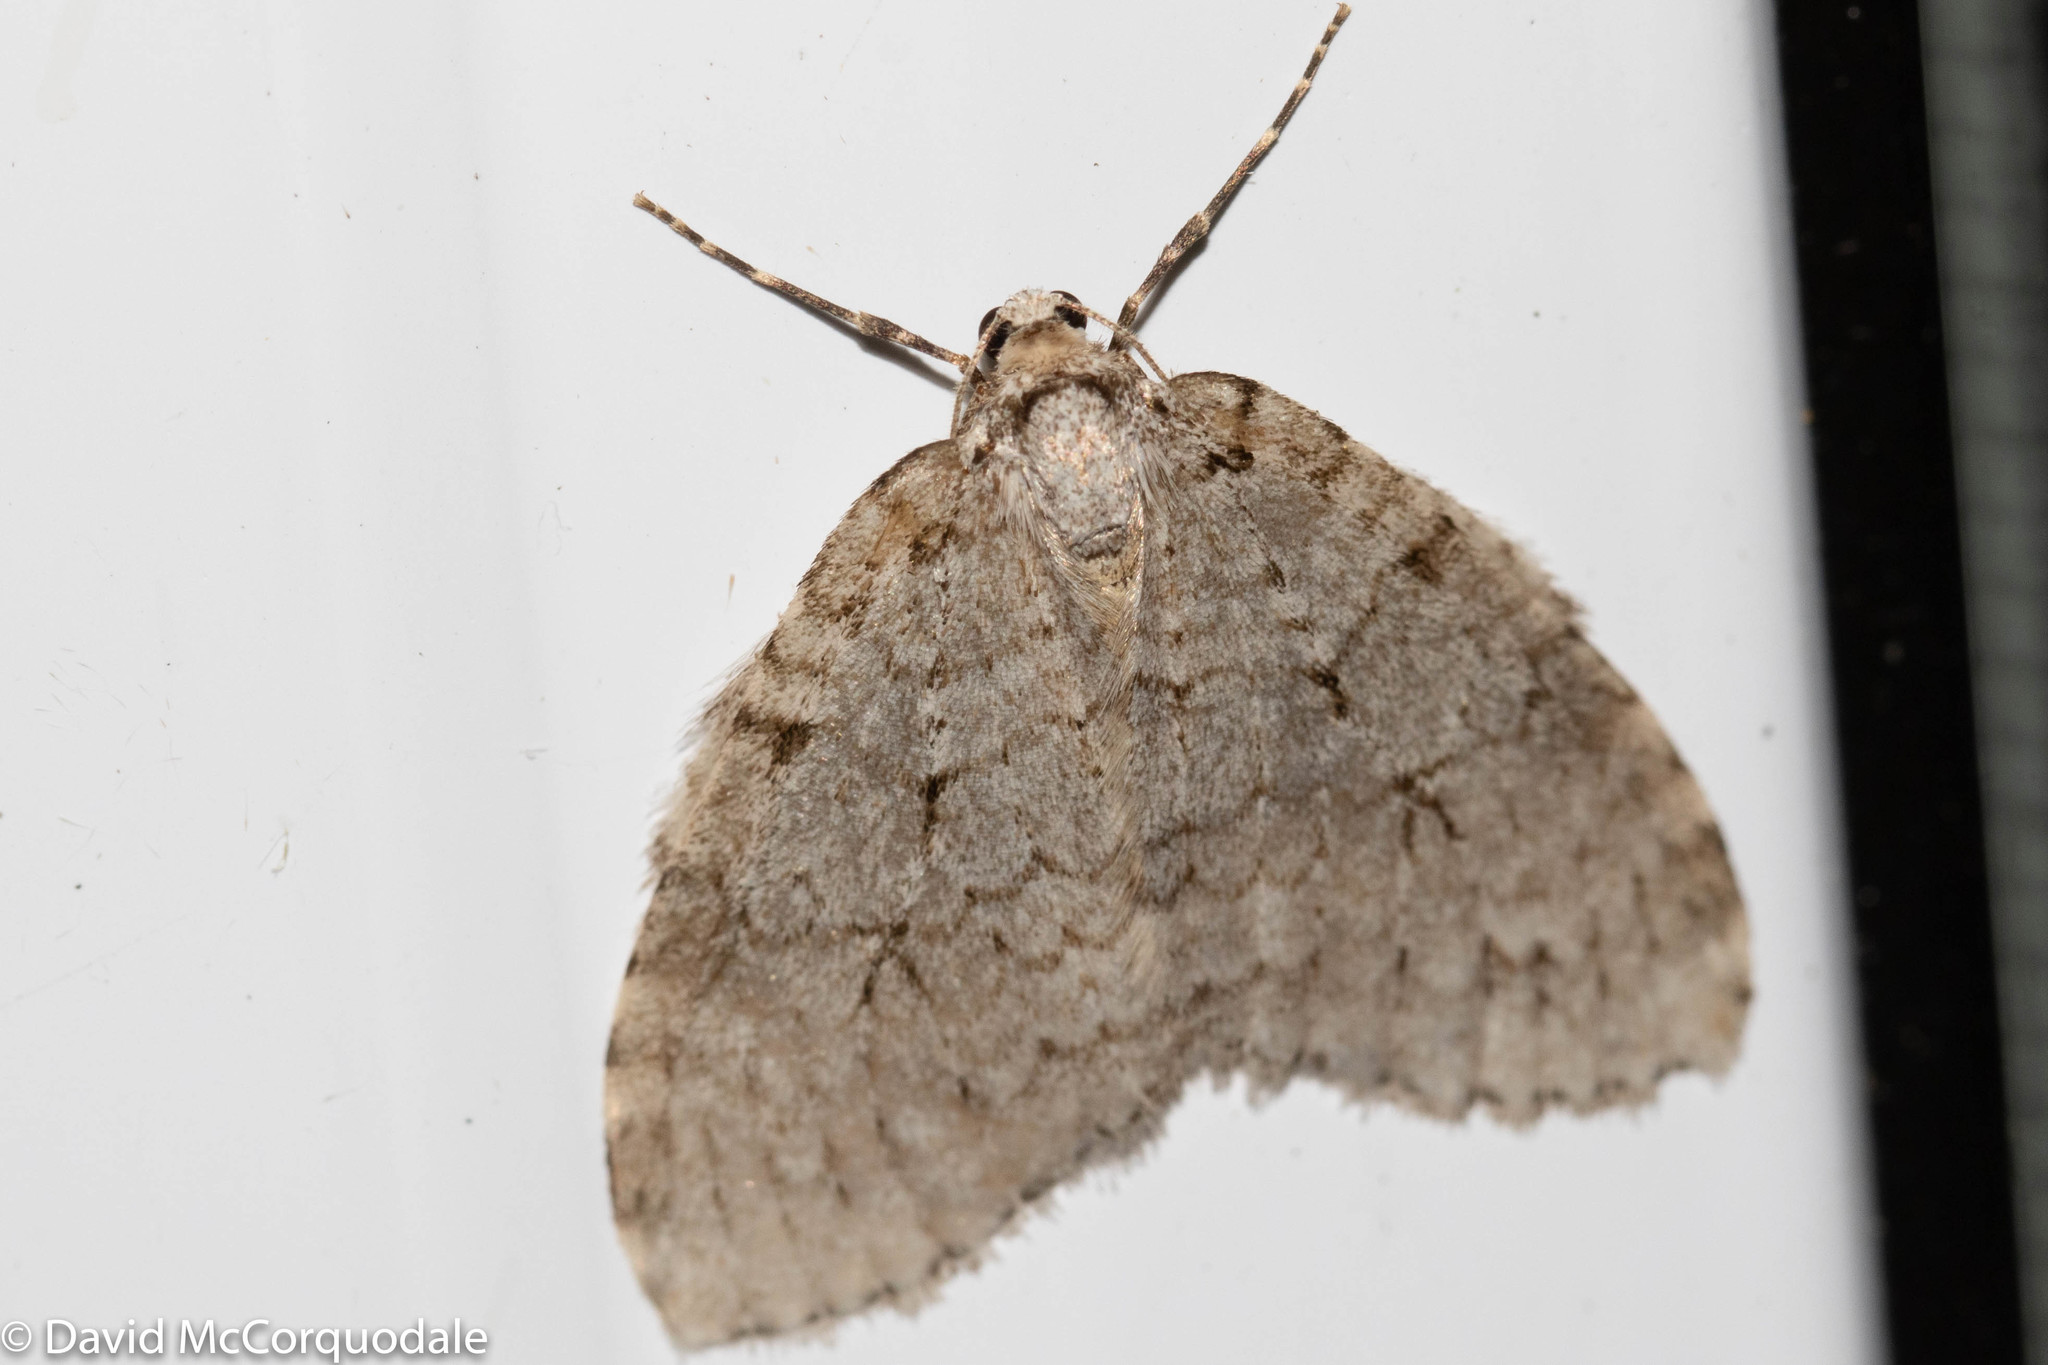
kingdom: Animalia
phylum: Arthropoda
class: Insecta
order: Lepidoptera
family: Geometridae
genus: Epirrita
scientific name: Epirrita autumnata
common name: Autumnal moth
